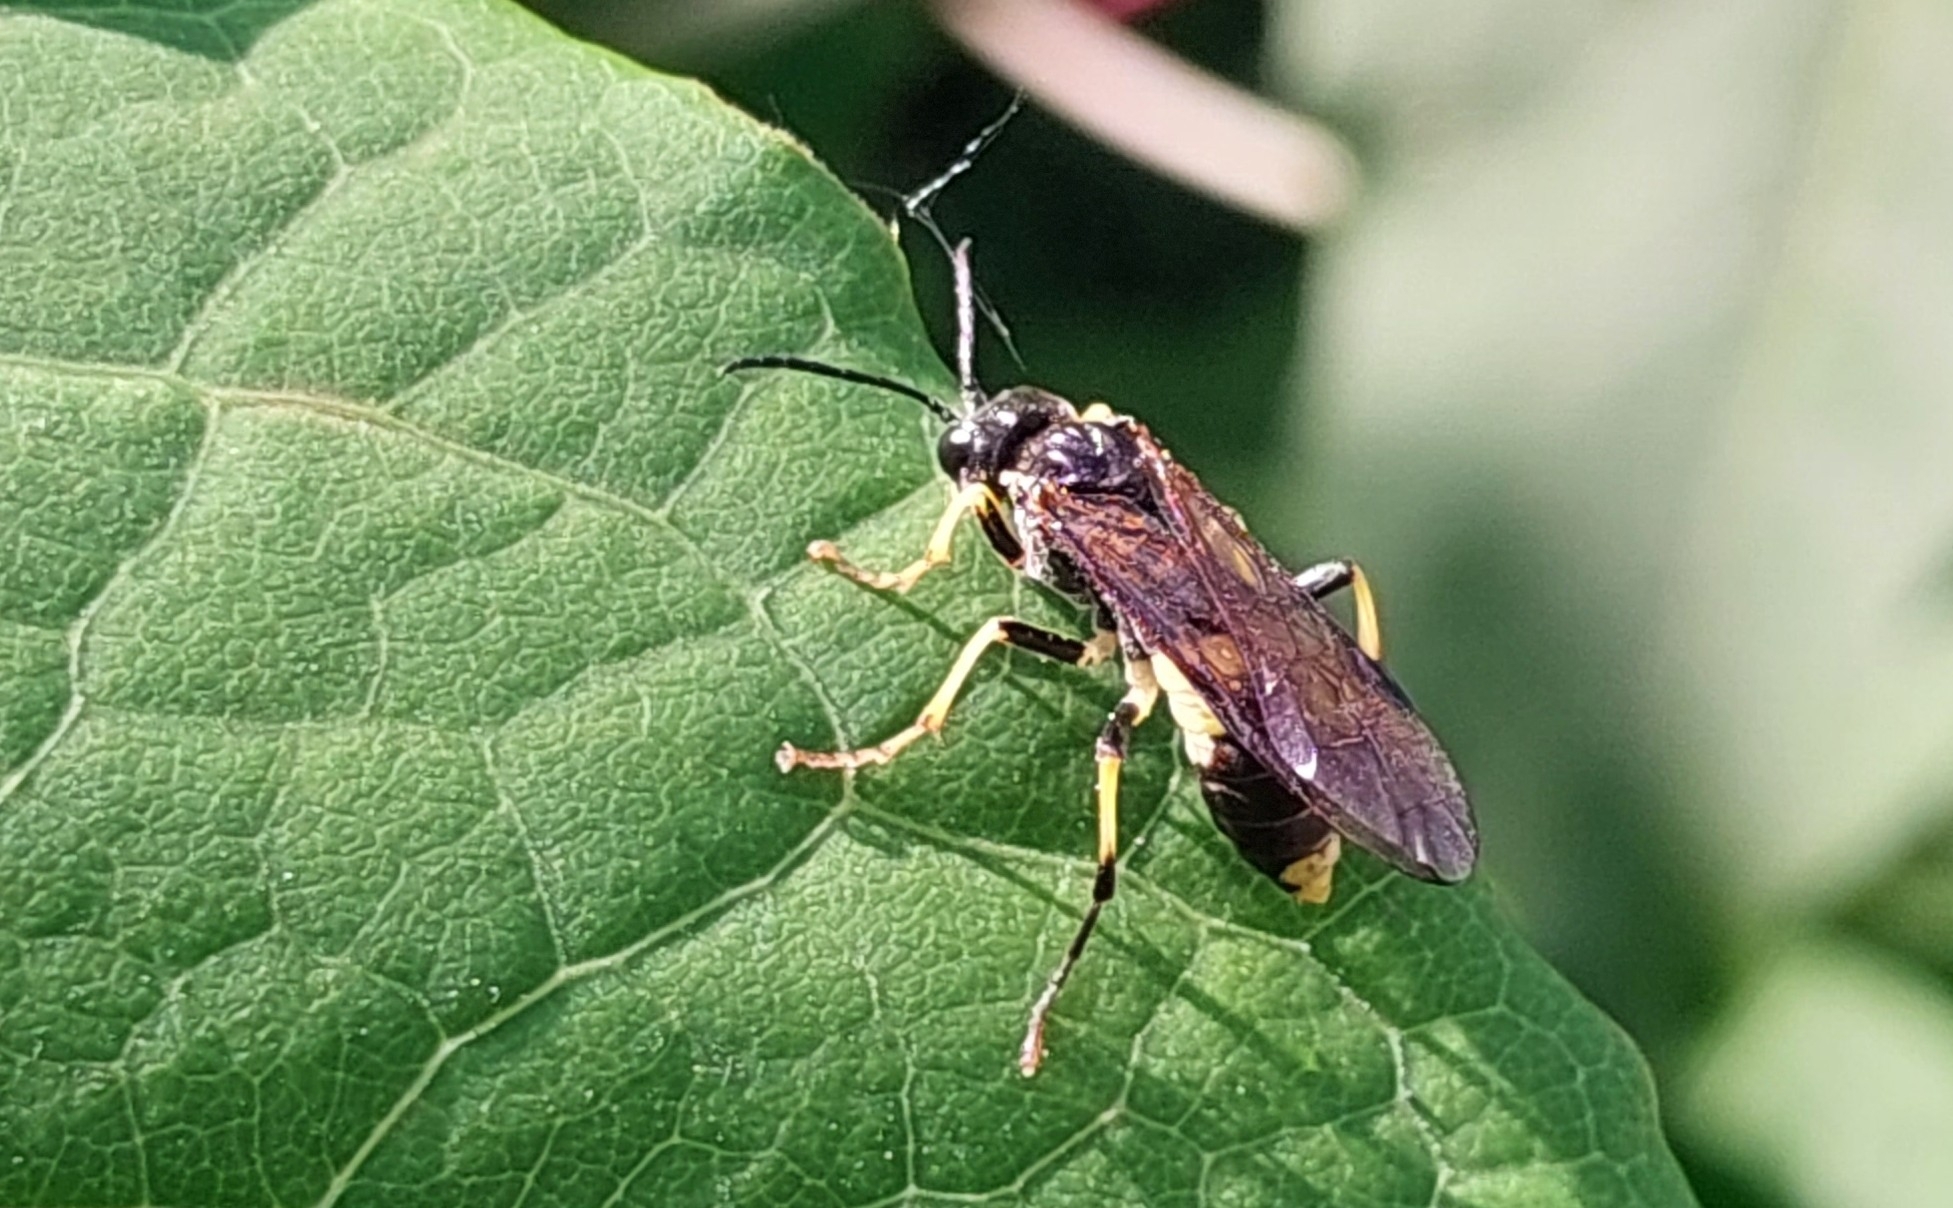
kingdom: Animalia
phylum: Arthropoda
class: Insecta
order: Hymenoptera
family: Tenthredinidae
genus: Tenthredo
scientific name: Tenthredo temula
